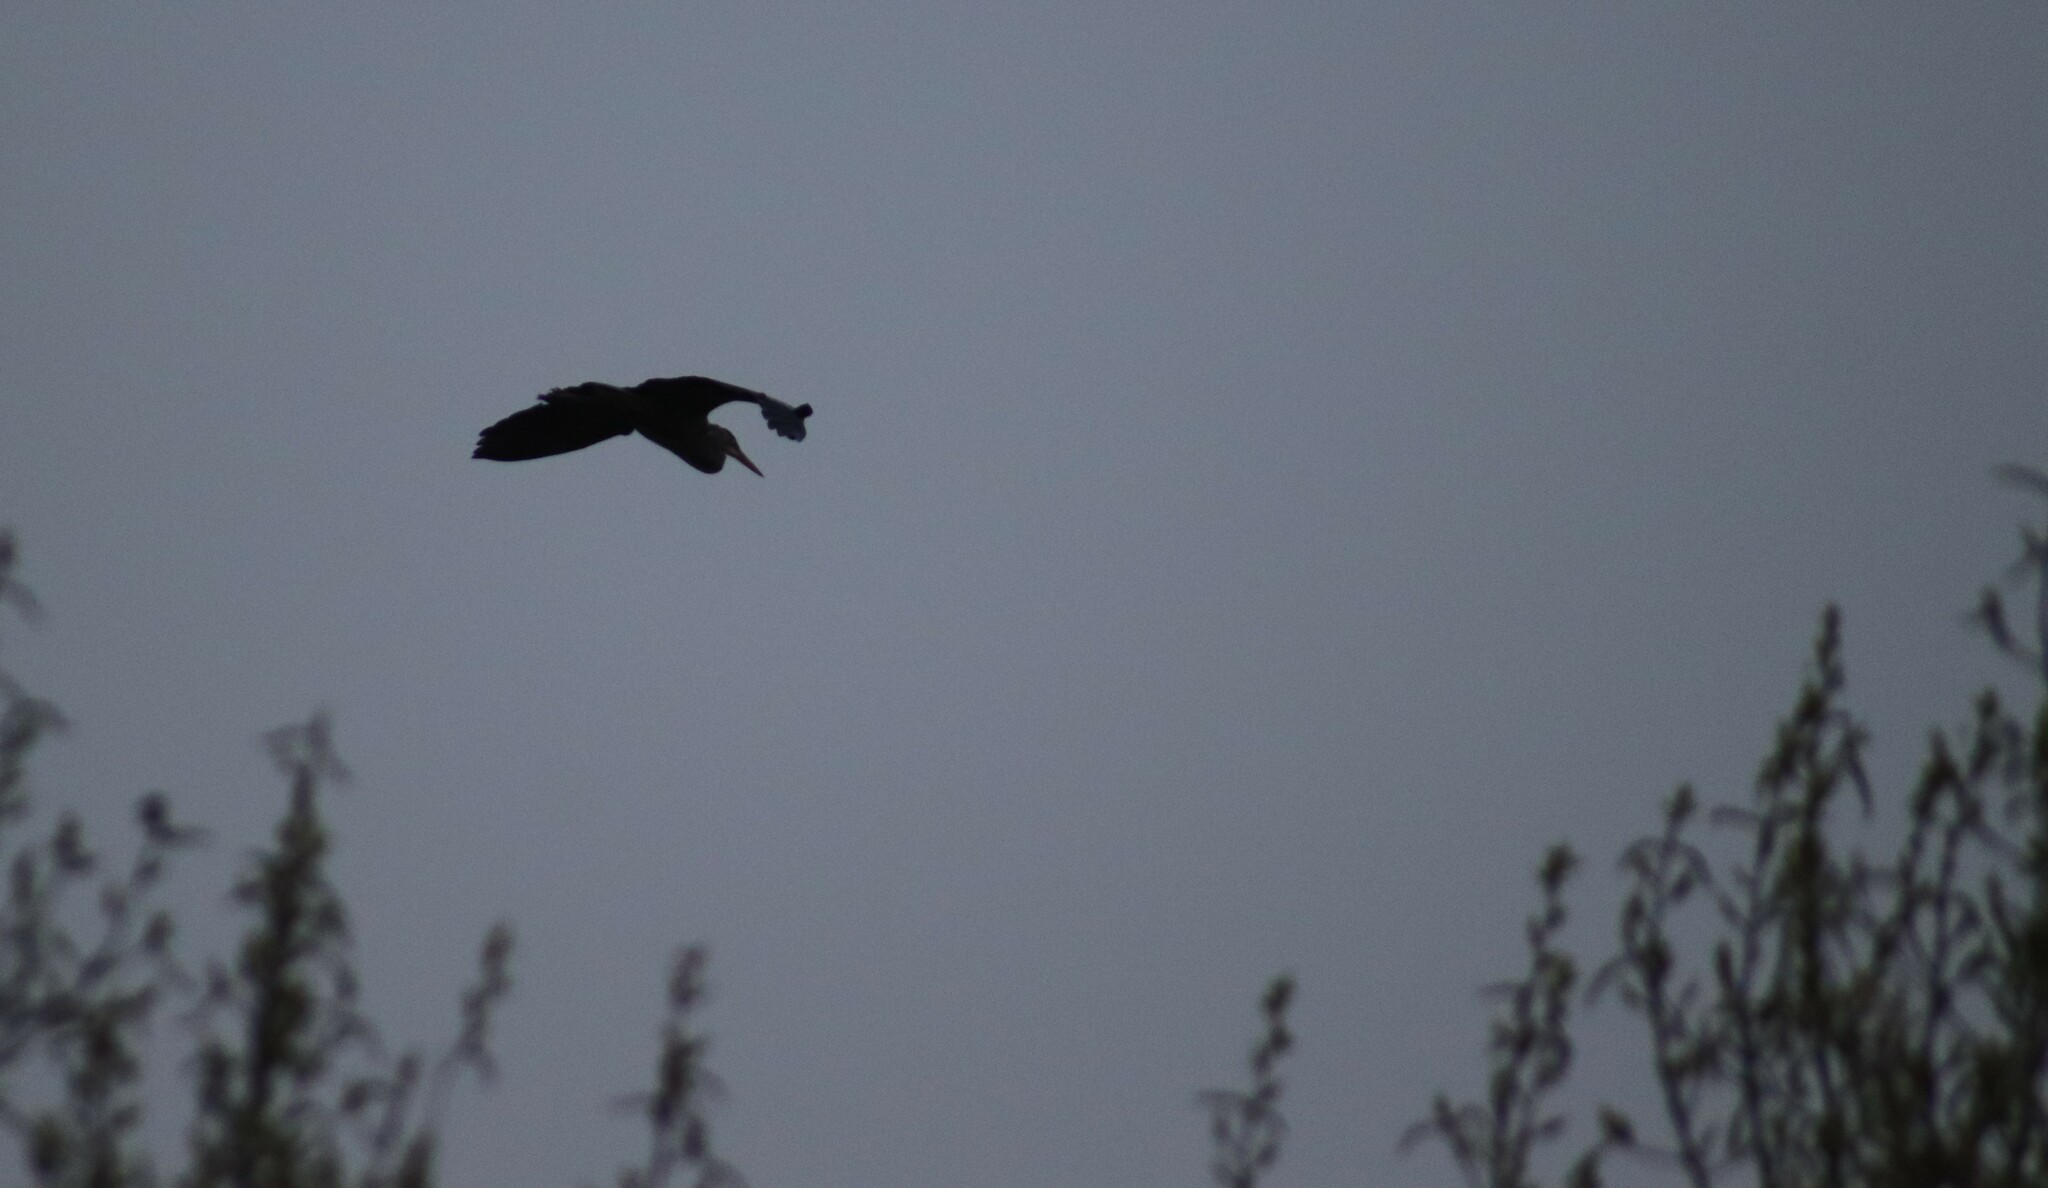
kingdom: Animalia
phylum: Chordata
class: Aves
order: Pelecaniformes
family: Ardeidae
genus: Ardea
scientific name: Ardea herodias
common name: Great blue heron
